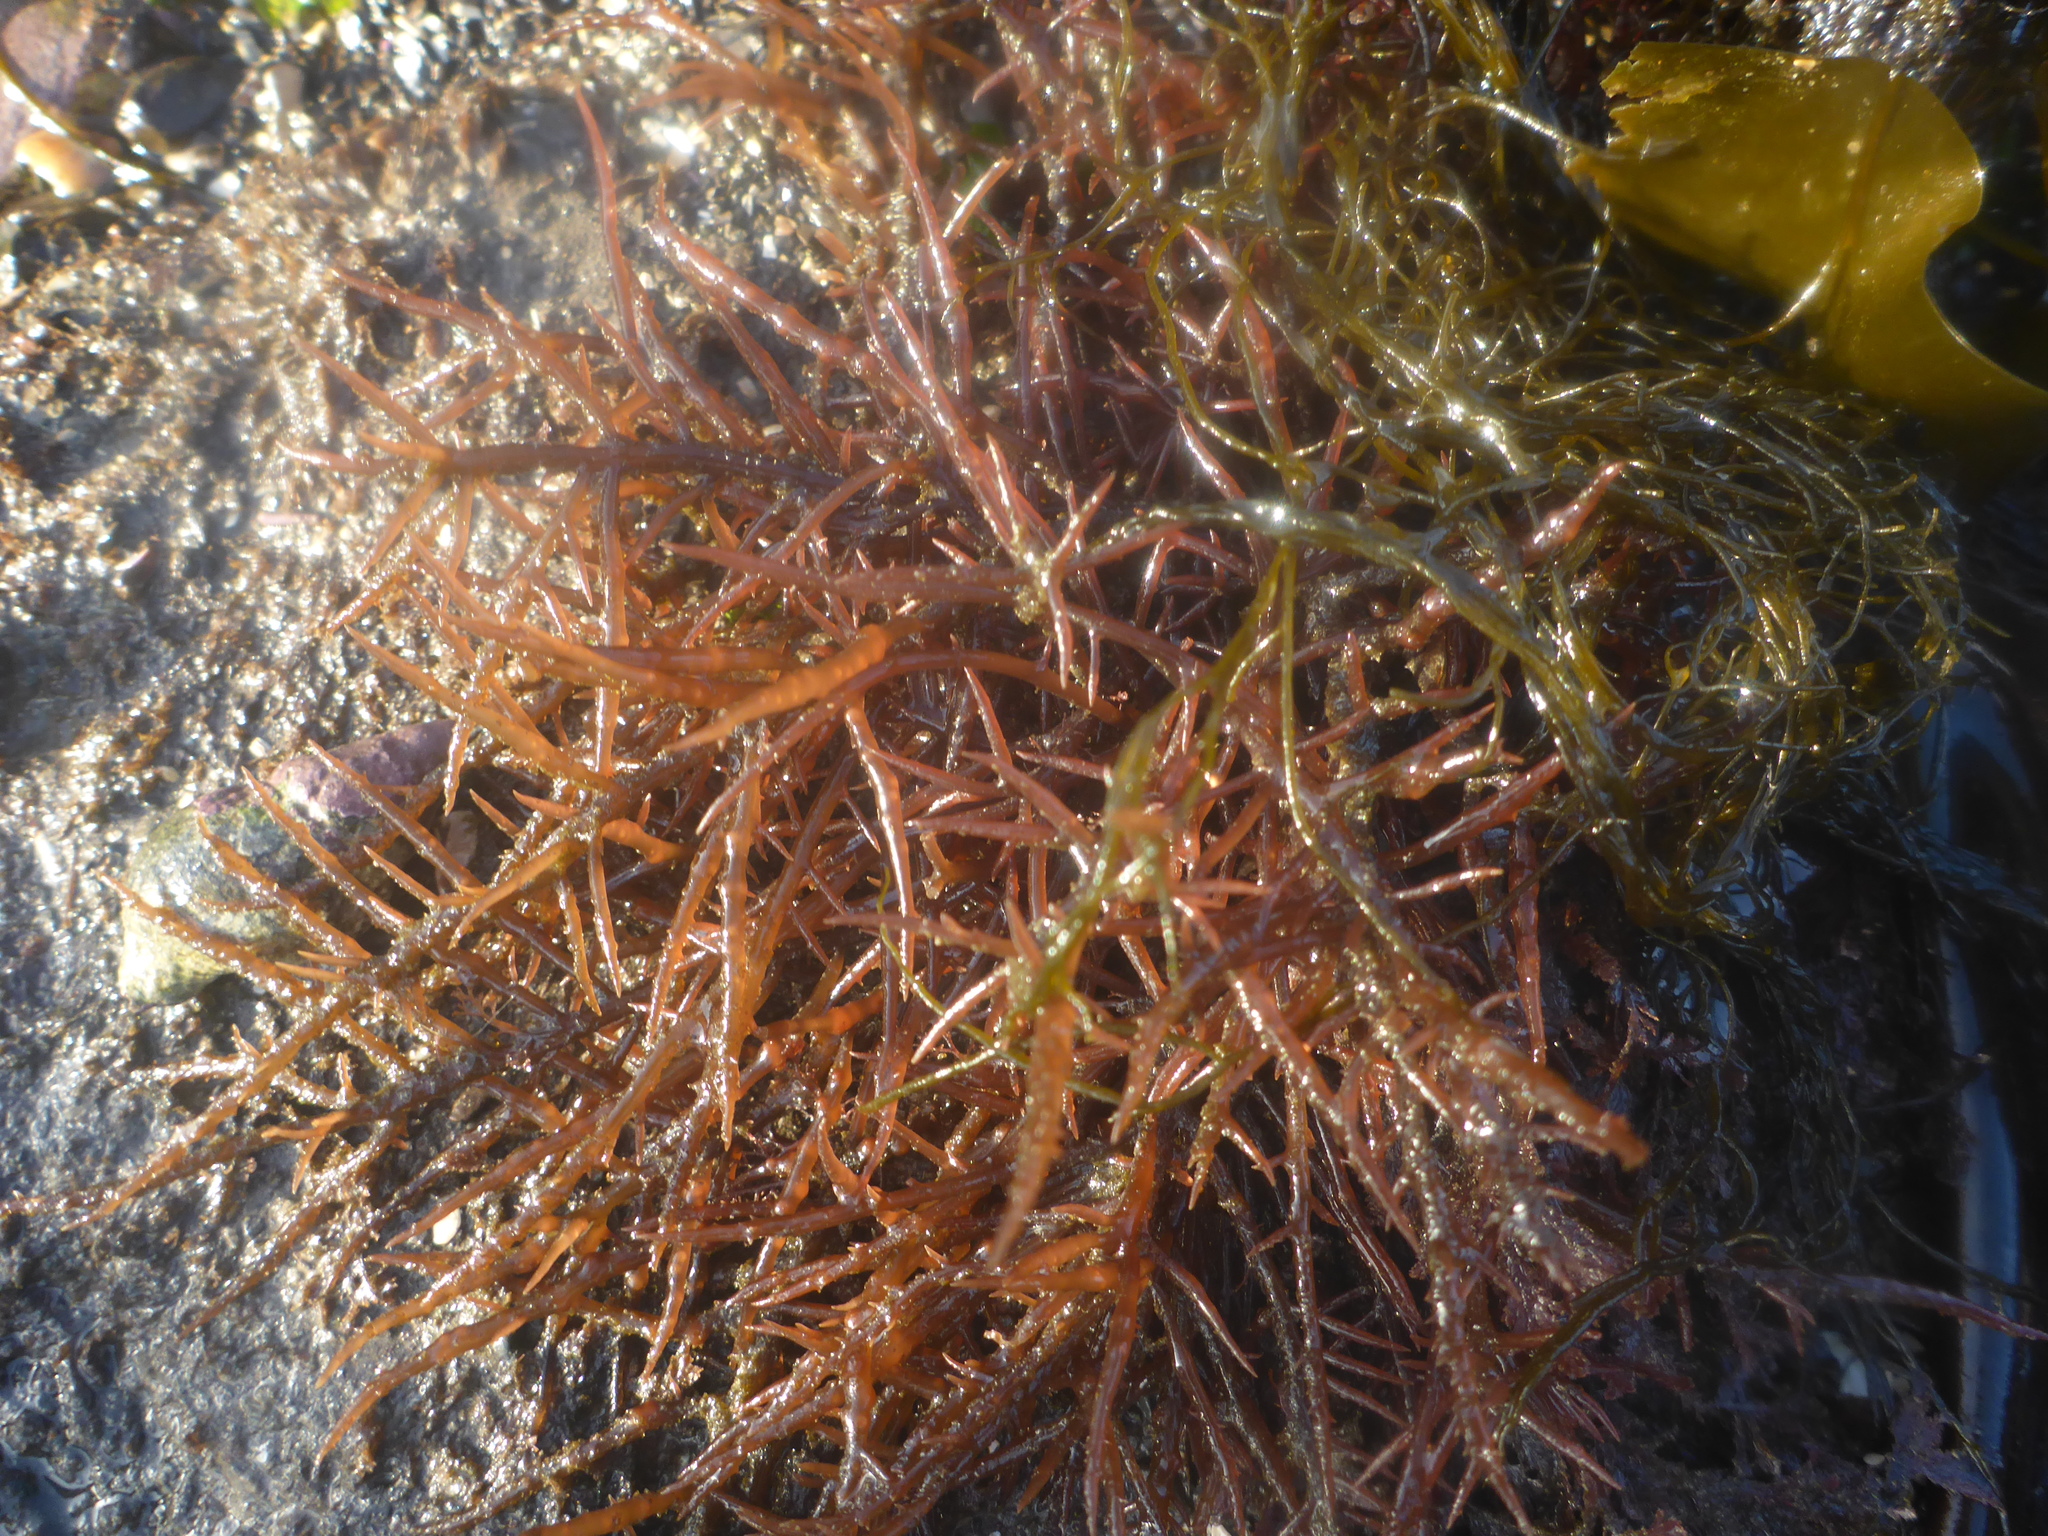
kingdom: Plantae
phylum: Rhodophyta
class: Florideophyceae
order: Gigartinales
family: Solieriaceae
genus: Sarcodiotheca
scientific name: Sarcodiotheca gaudichaudii
